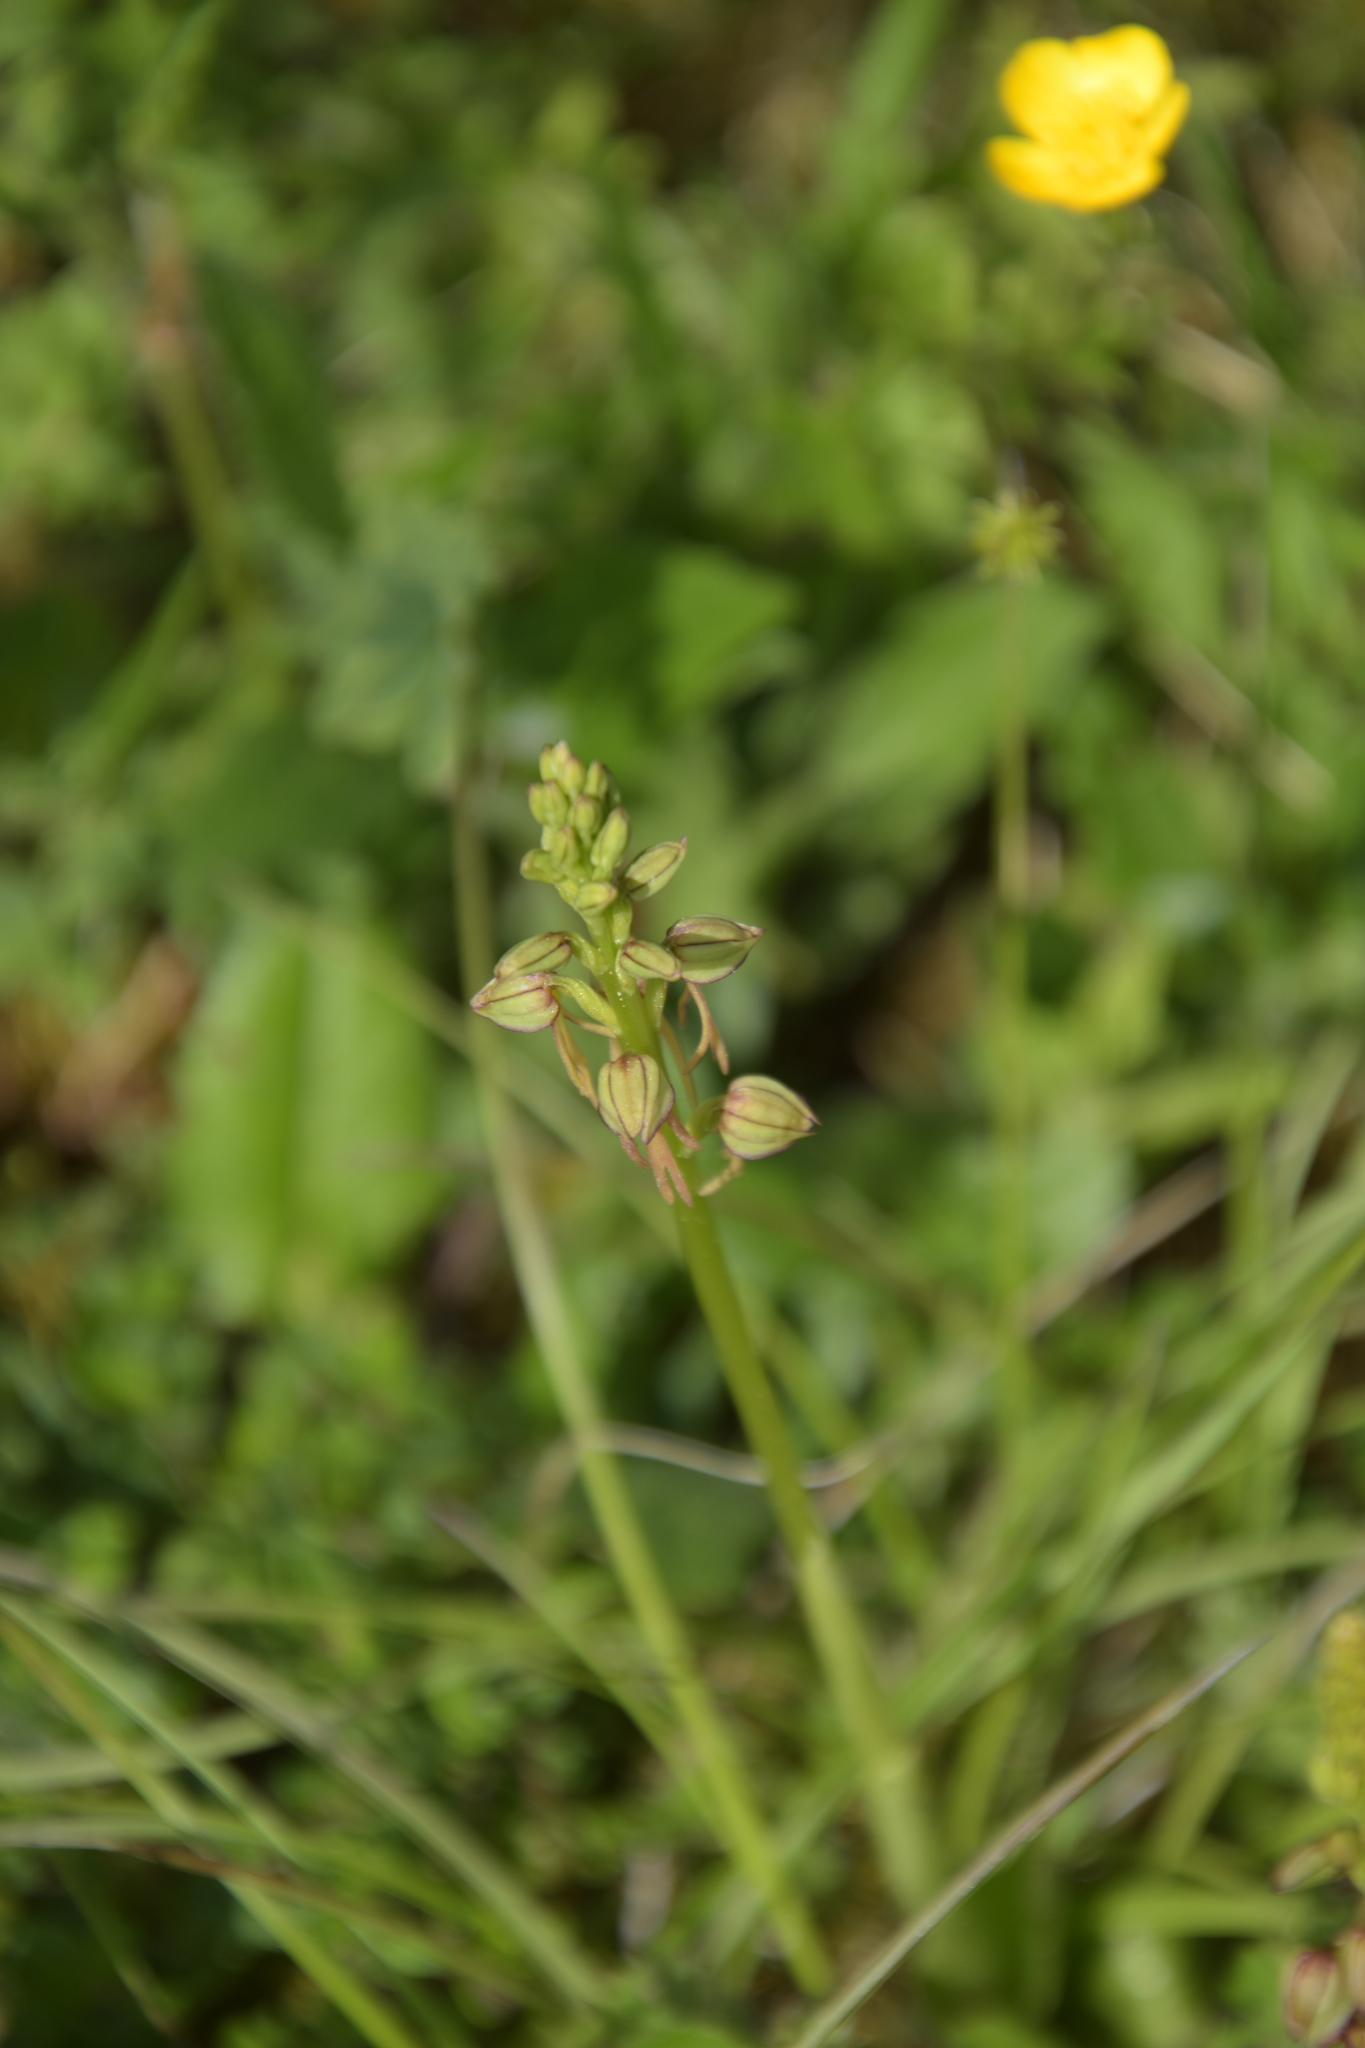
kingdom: Plantae
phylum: Tracheophyta
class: Liliopsida
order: Asparagales
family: Orchidaceae
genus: Orchis
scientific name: Orchis anthropophora
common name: Man orchid
